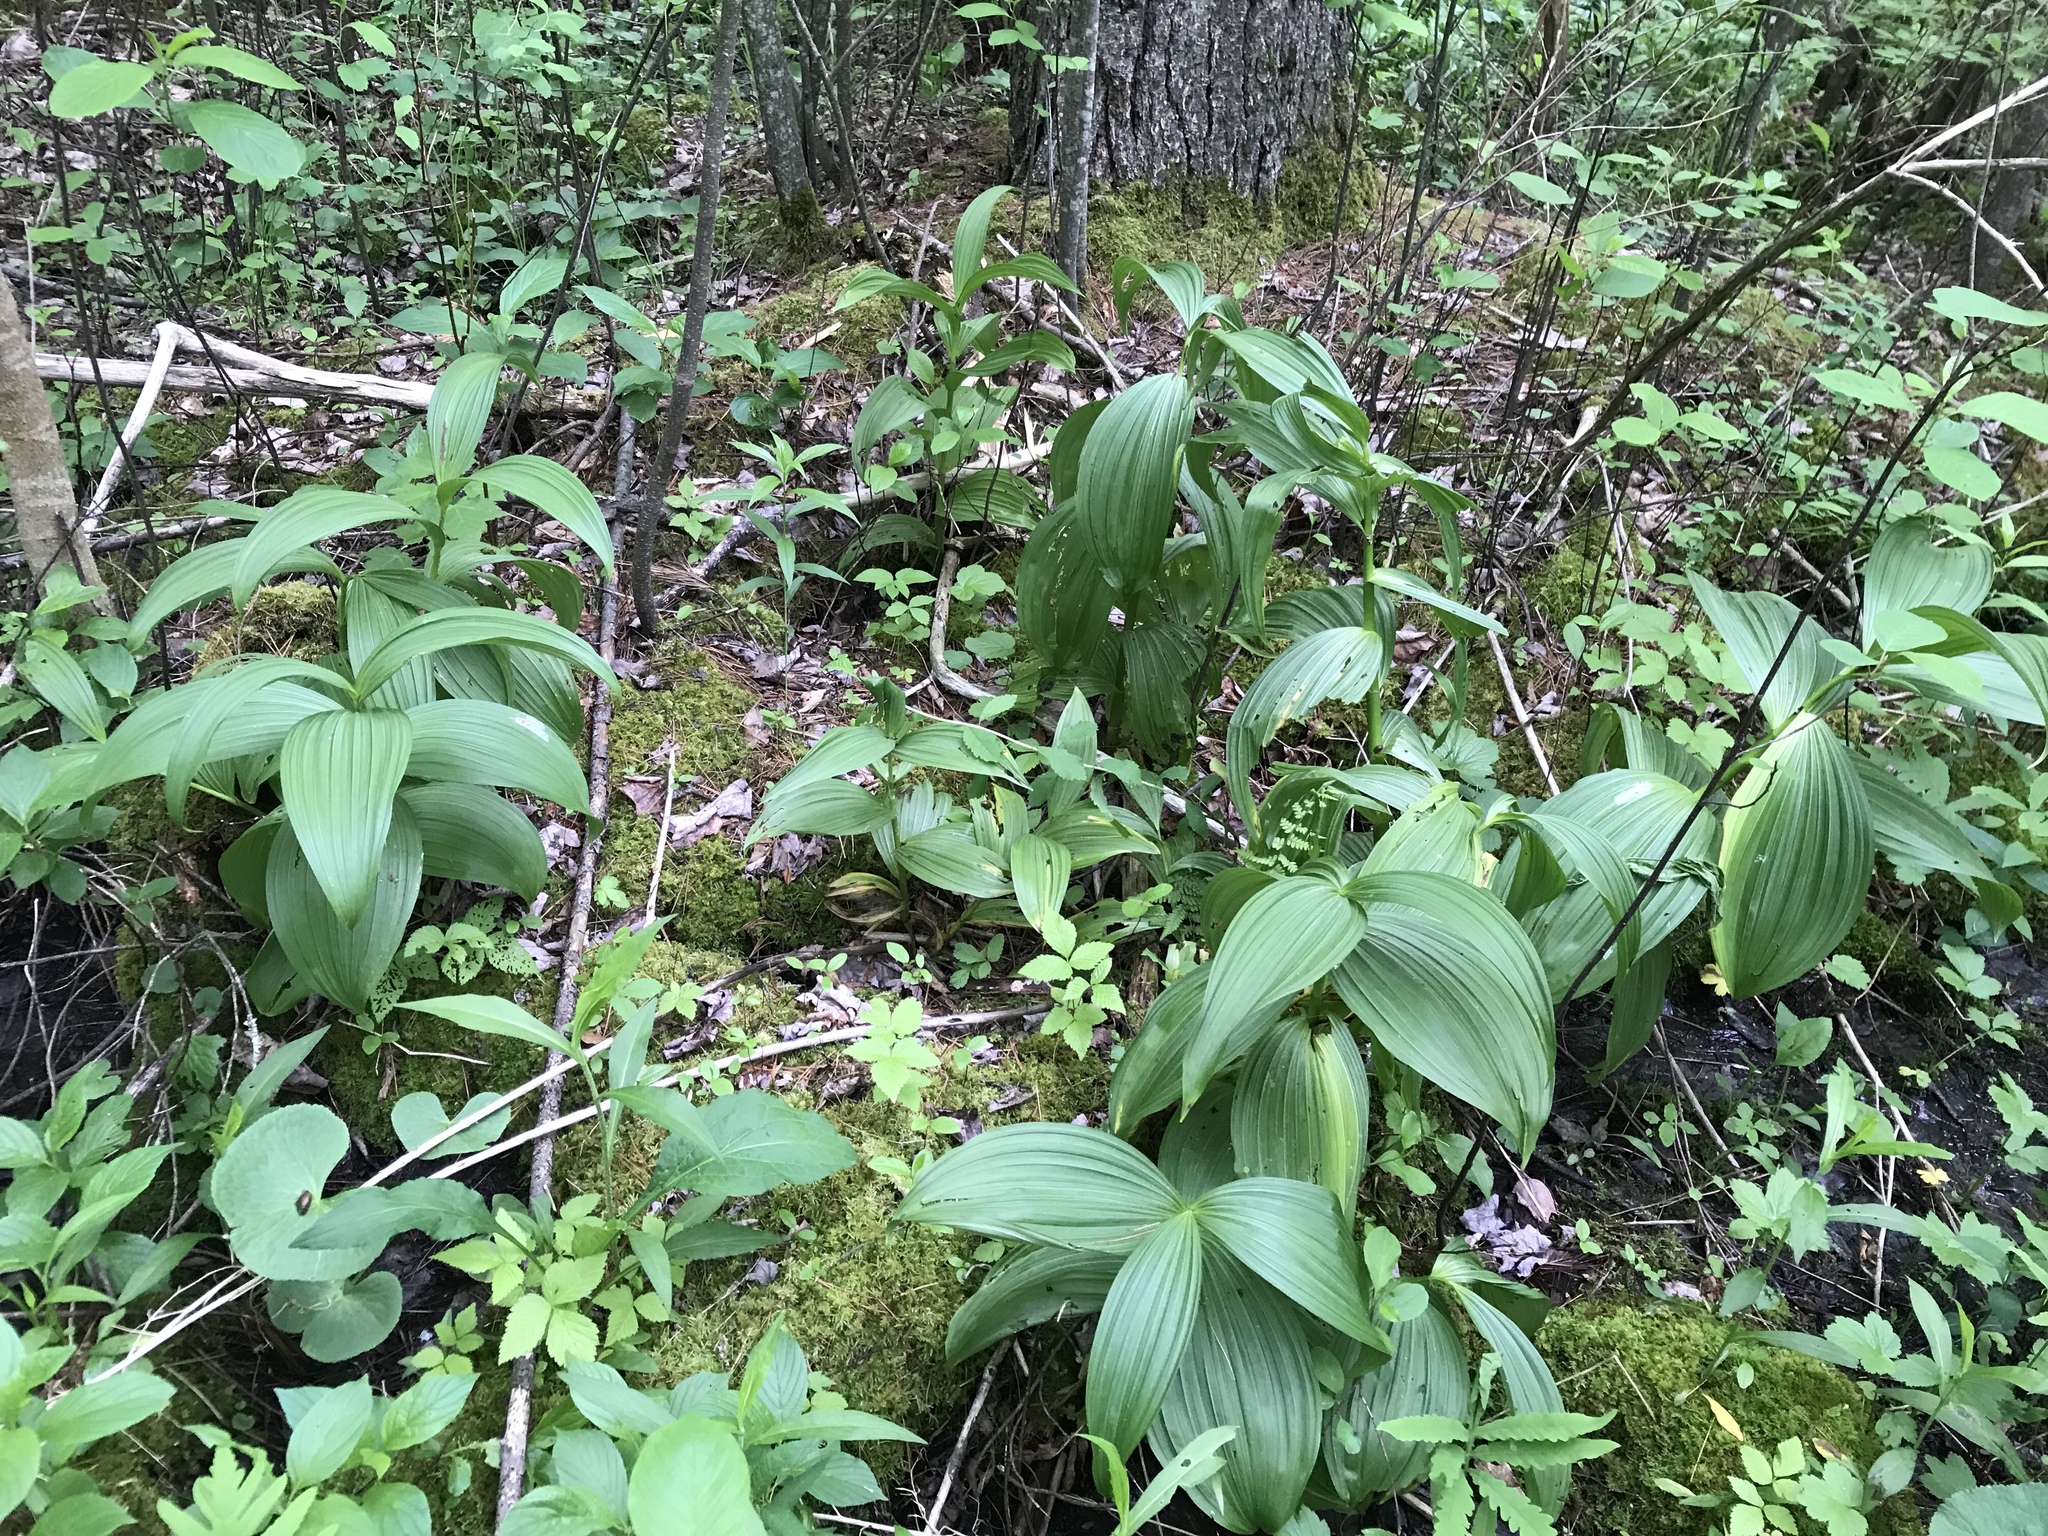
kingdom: Plantae
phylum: Tracheophyta
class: Liliopsida
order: Liliales
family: Melanthiaceae
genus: Veratrum
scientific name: Veratrum viride
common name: American false hellebore
